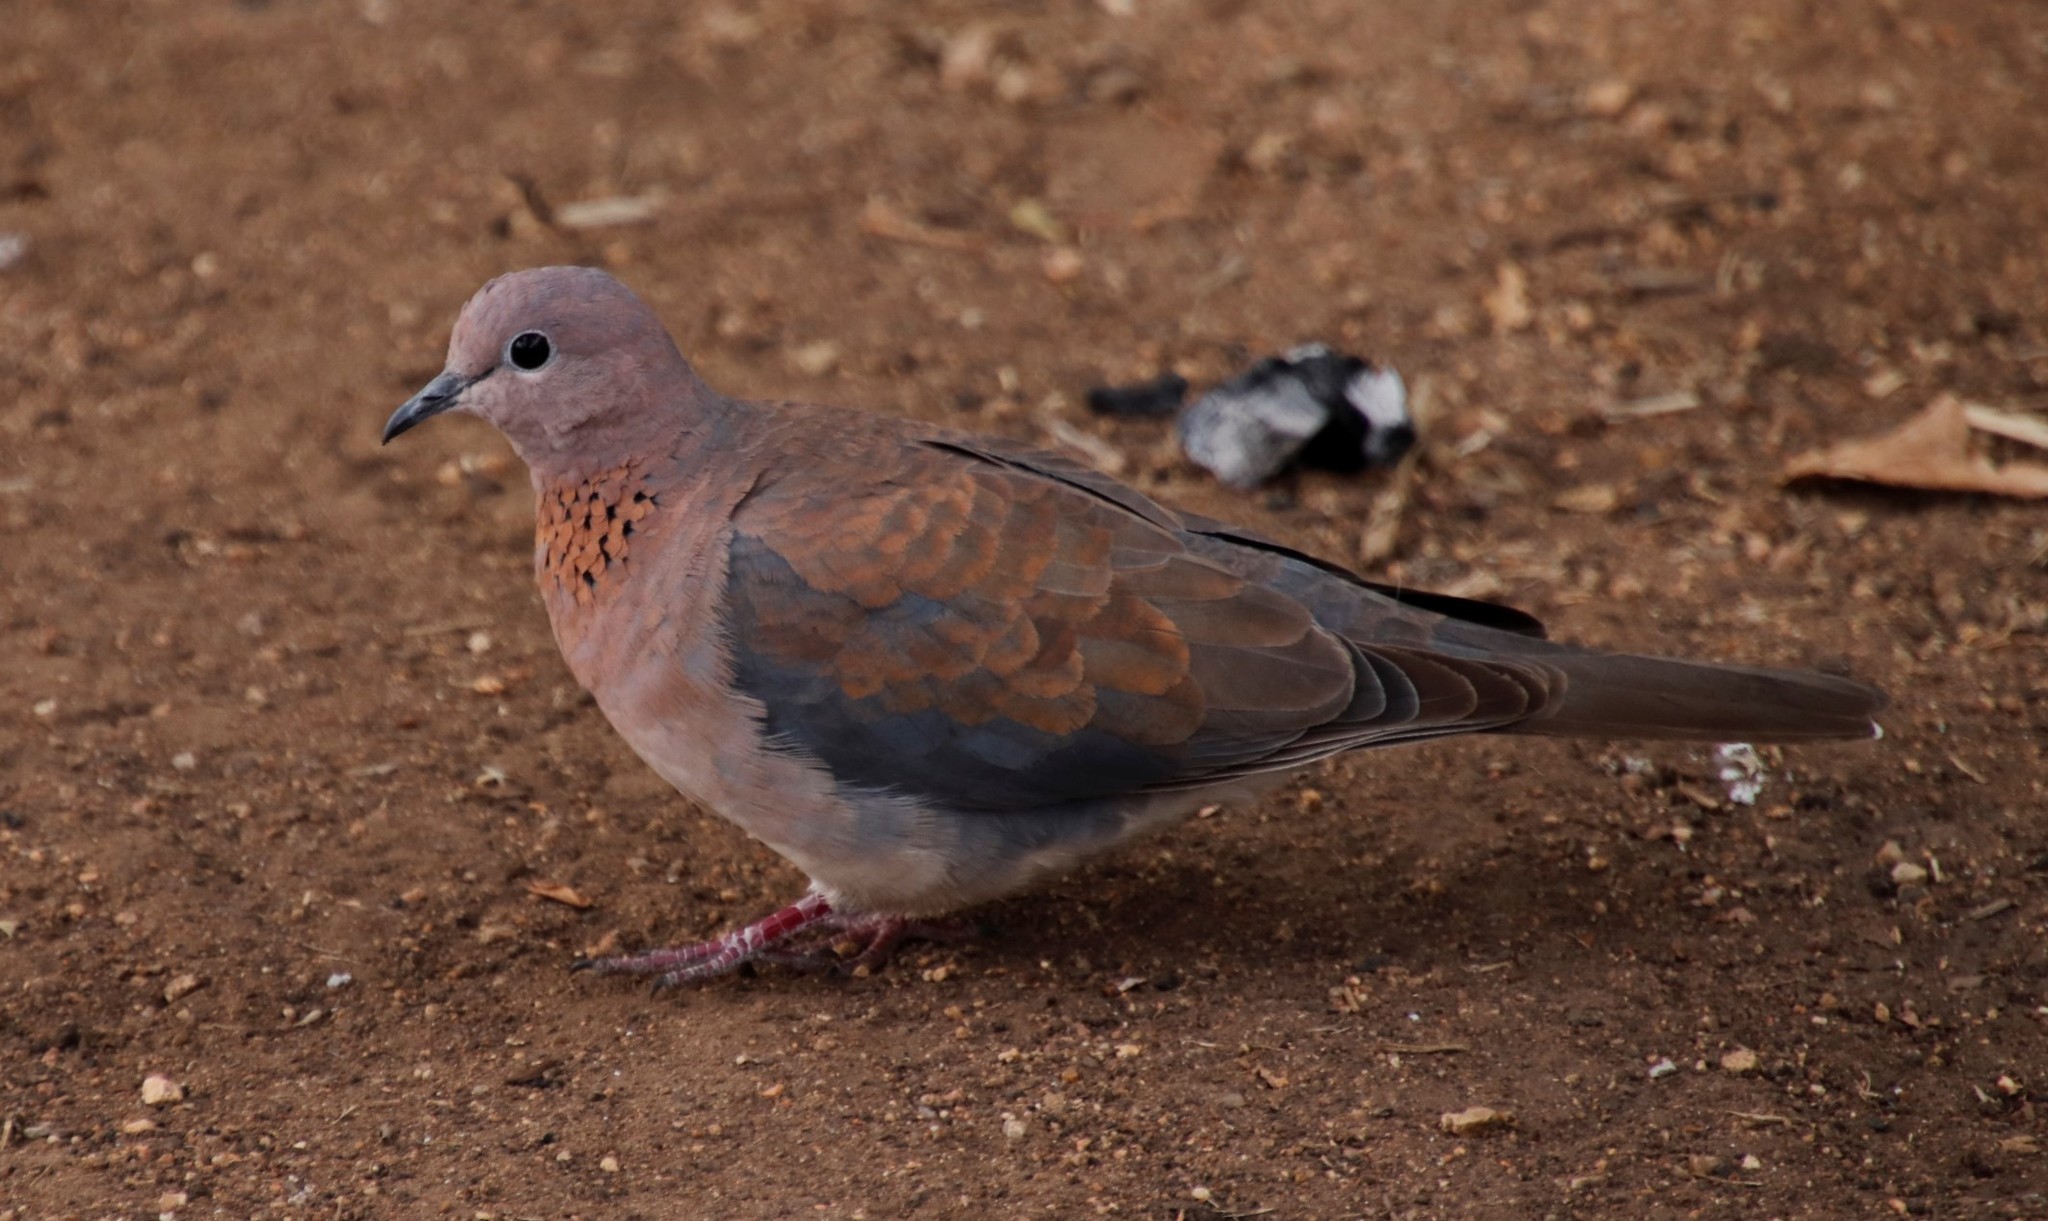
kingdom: Animalia
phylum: Chordata
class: Aves
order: Columbiformes
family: Columbidae
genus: Spilopelia
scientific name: Spilopelia senegalensis
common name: Laughing dove
